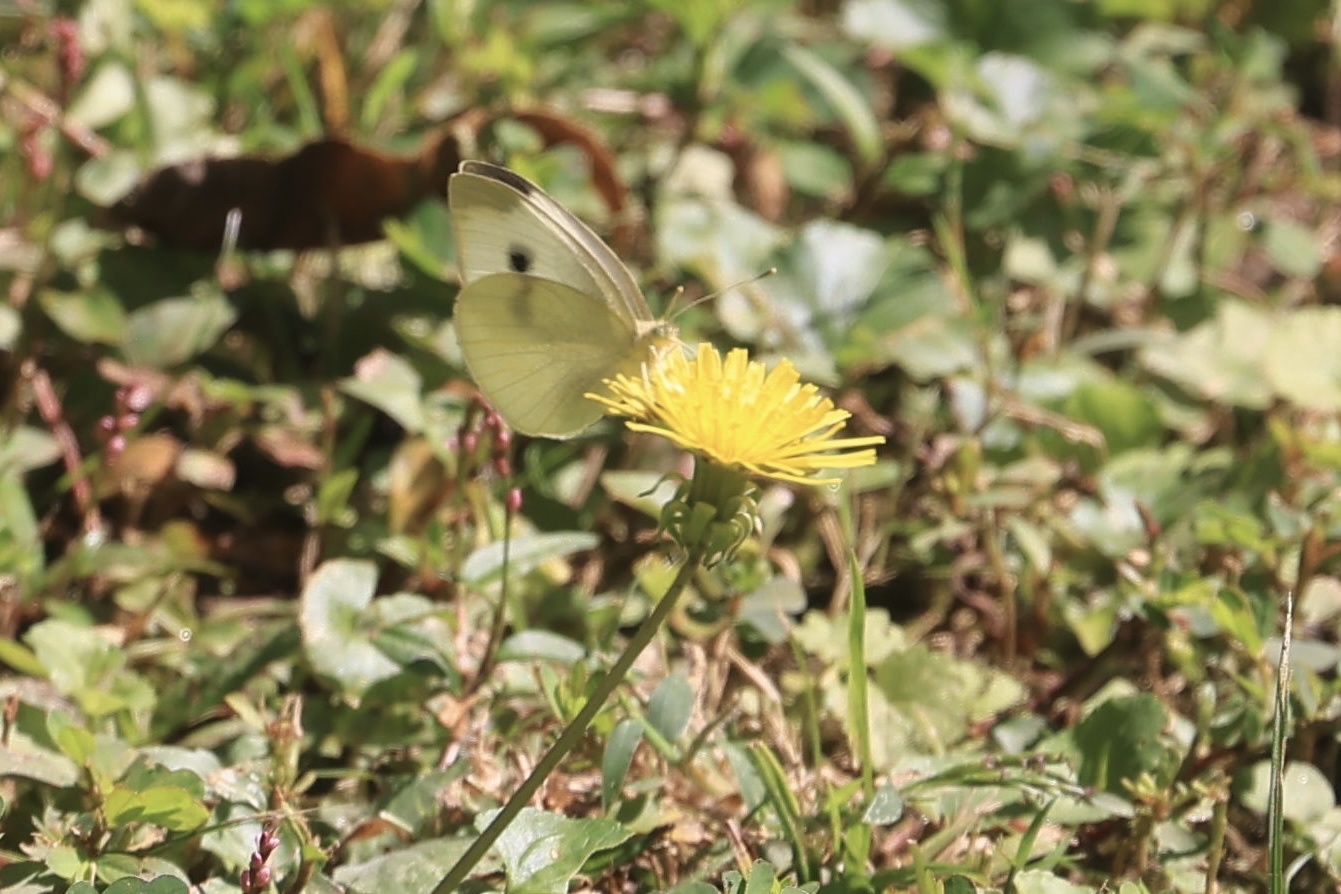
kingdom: Animalia
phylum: Arthropoda
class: Insecta
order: Lepidoptera
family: Pieridae
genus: Pieris
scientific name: Pieris rapae
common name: Small white
